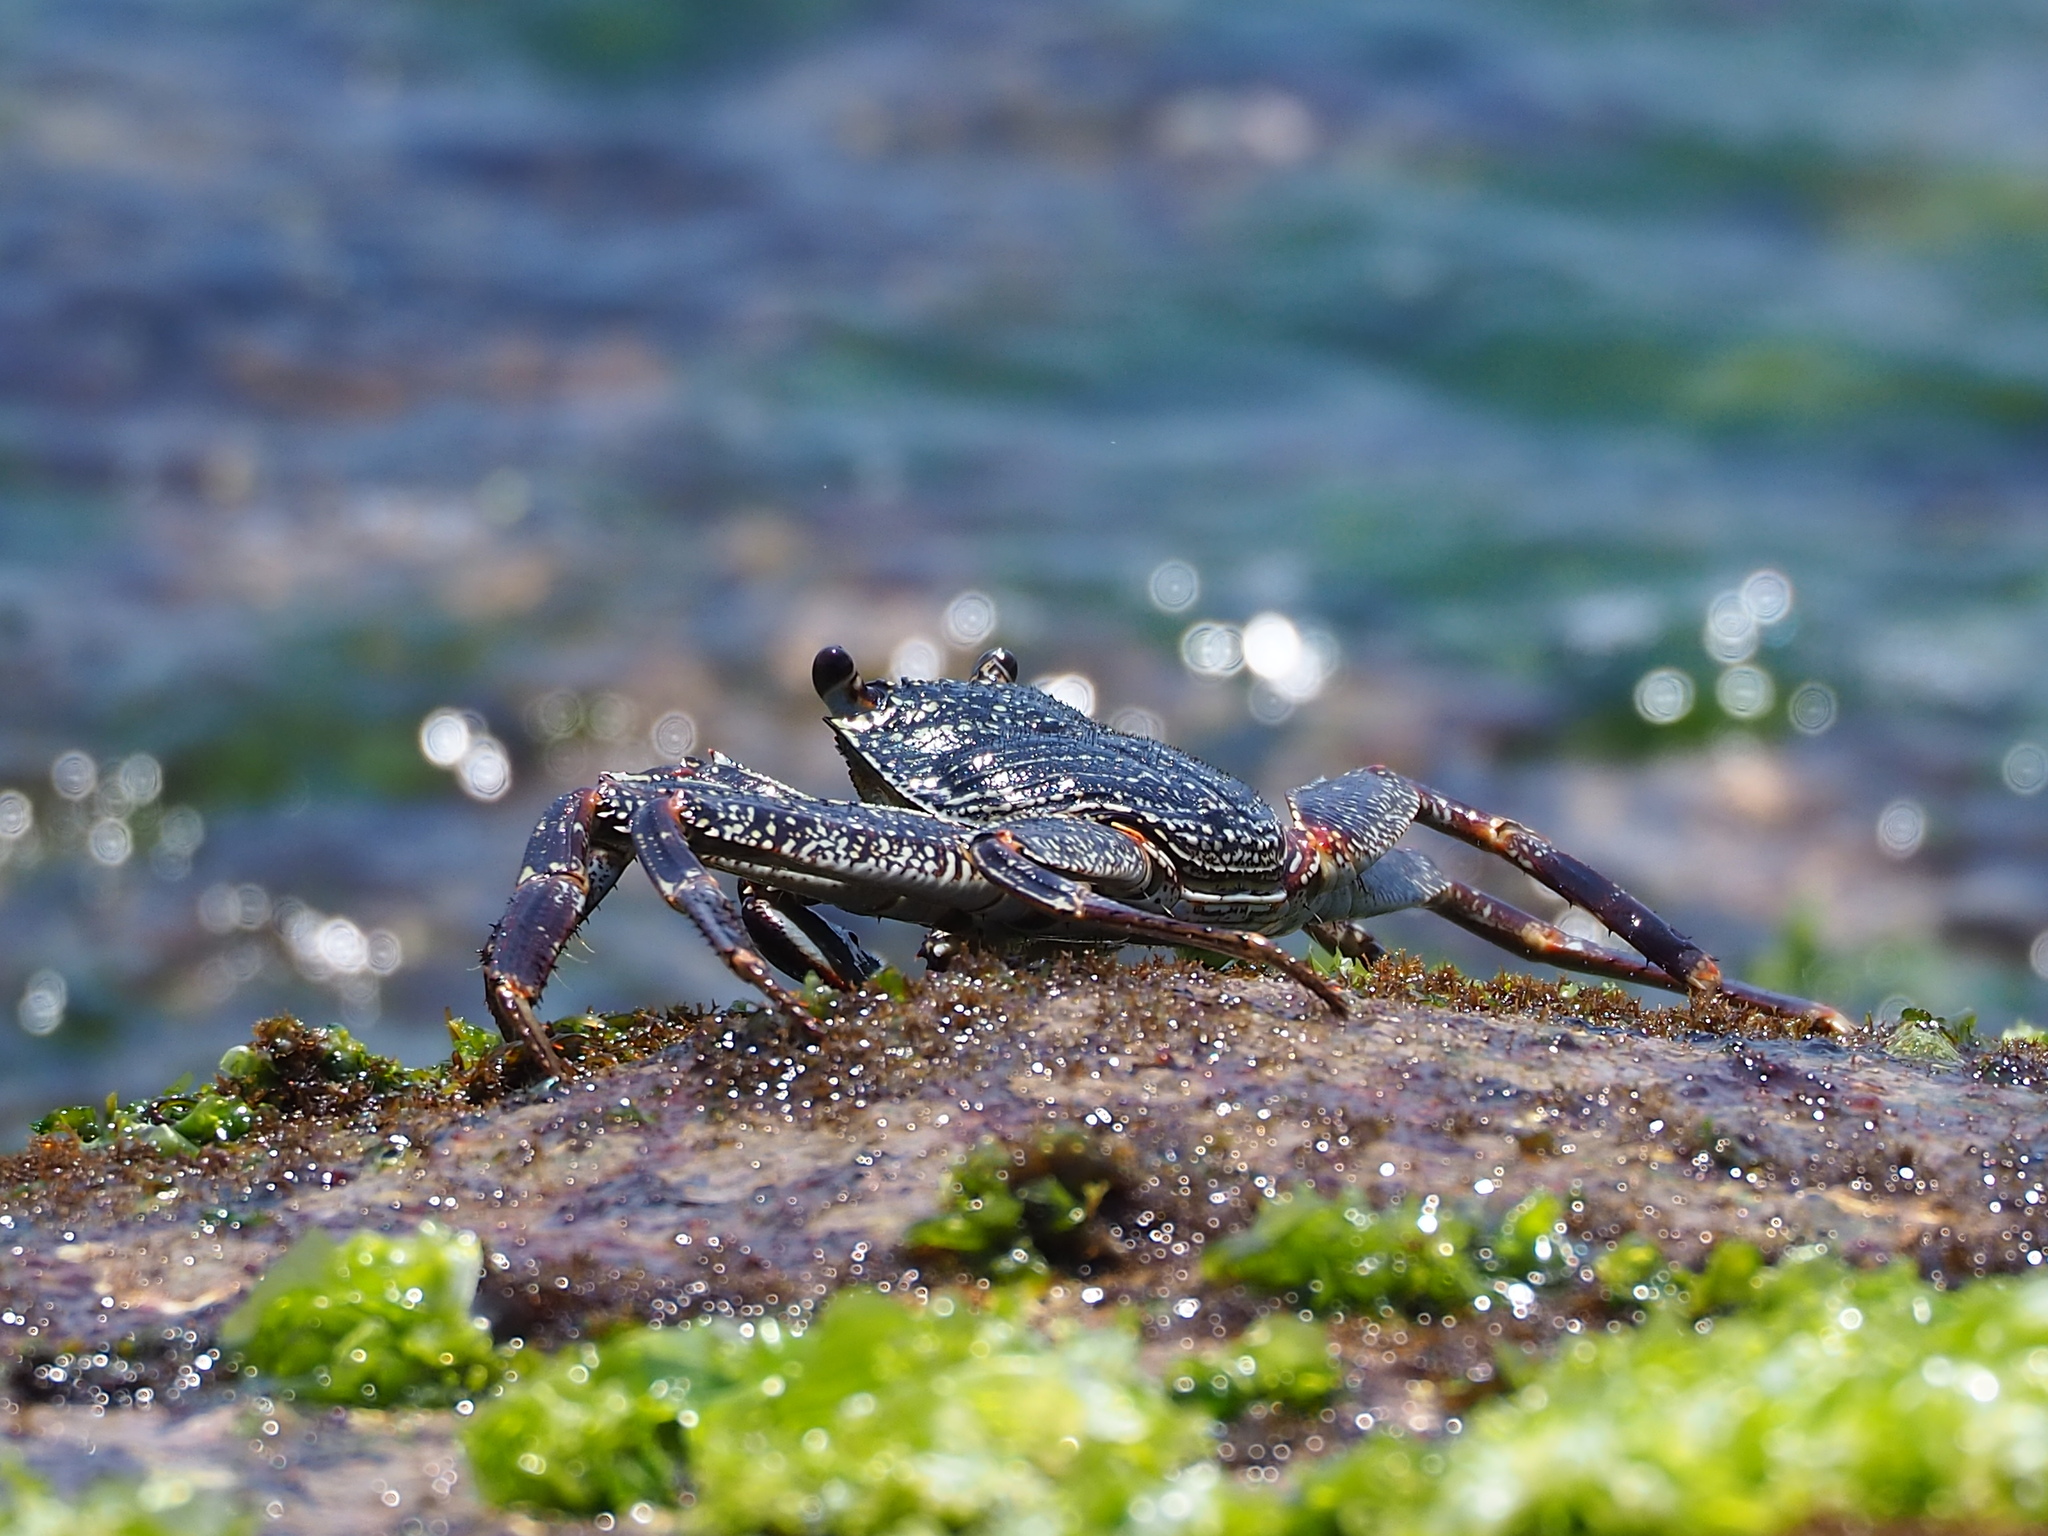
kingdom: Animalia
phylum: Arthropoda
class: Malacostraca
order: Decapoda
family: Grapsidae
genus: Grapsus
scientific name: Grapsus tenuicrustatus
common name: Natal lightfoot crab
